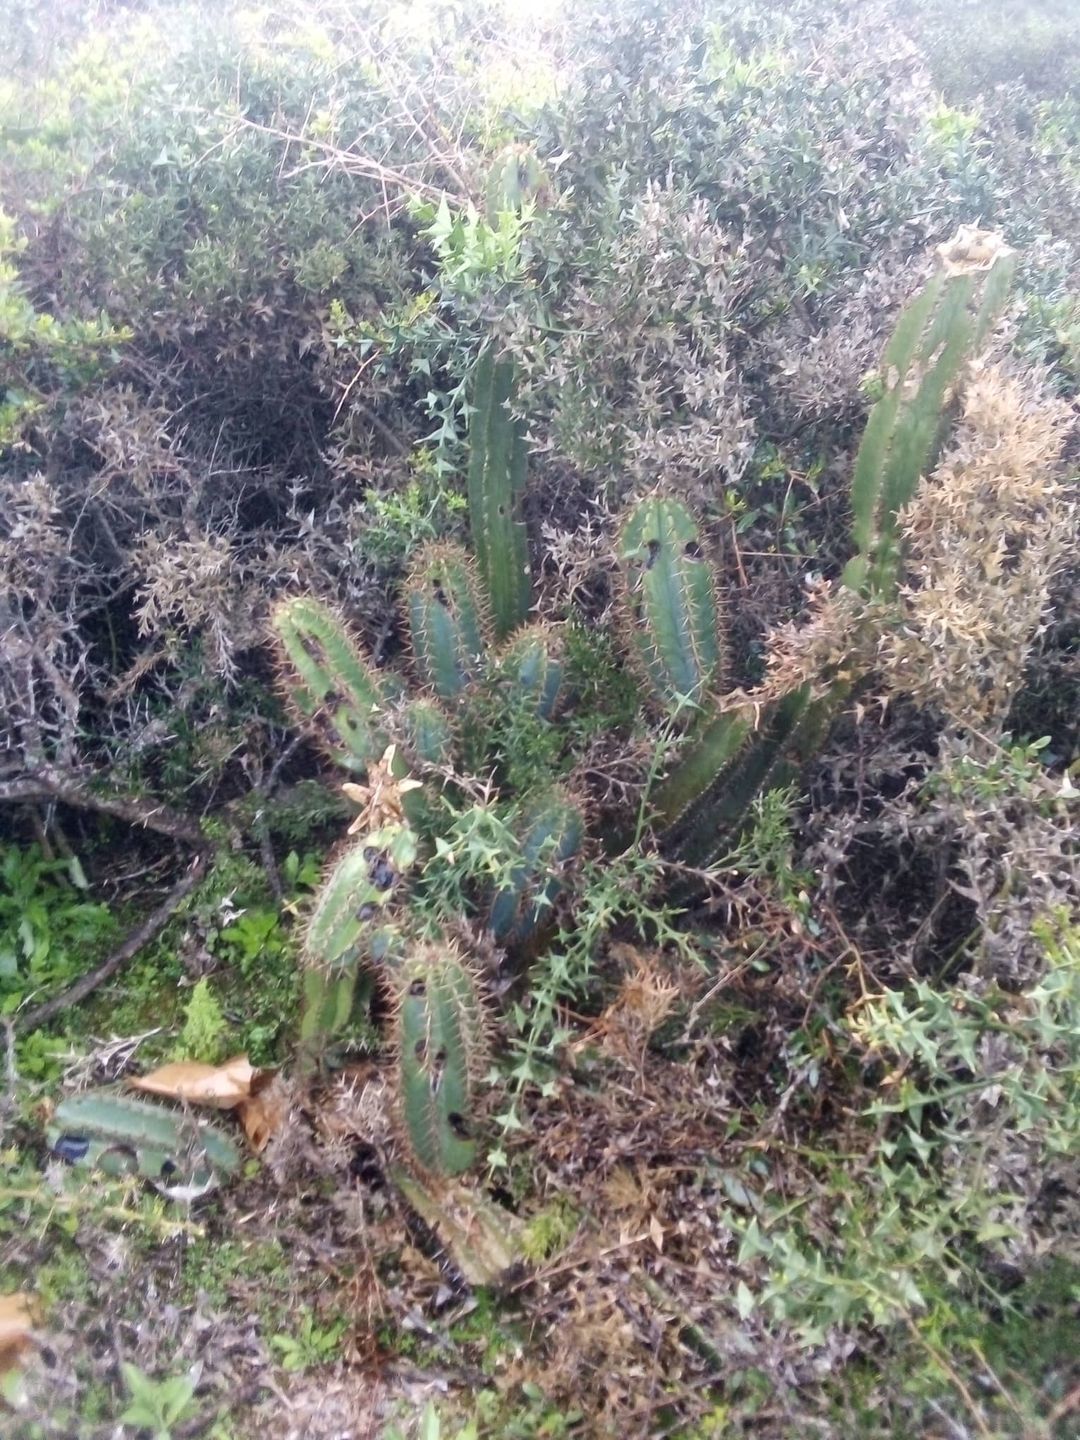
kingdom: Plantae
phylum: Tracheophyta
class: Magnoliopsida
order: Caryophyllales
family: Cactaceae
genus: Cereus
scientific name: Cereus hildmannianus
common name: Hedge cactus
